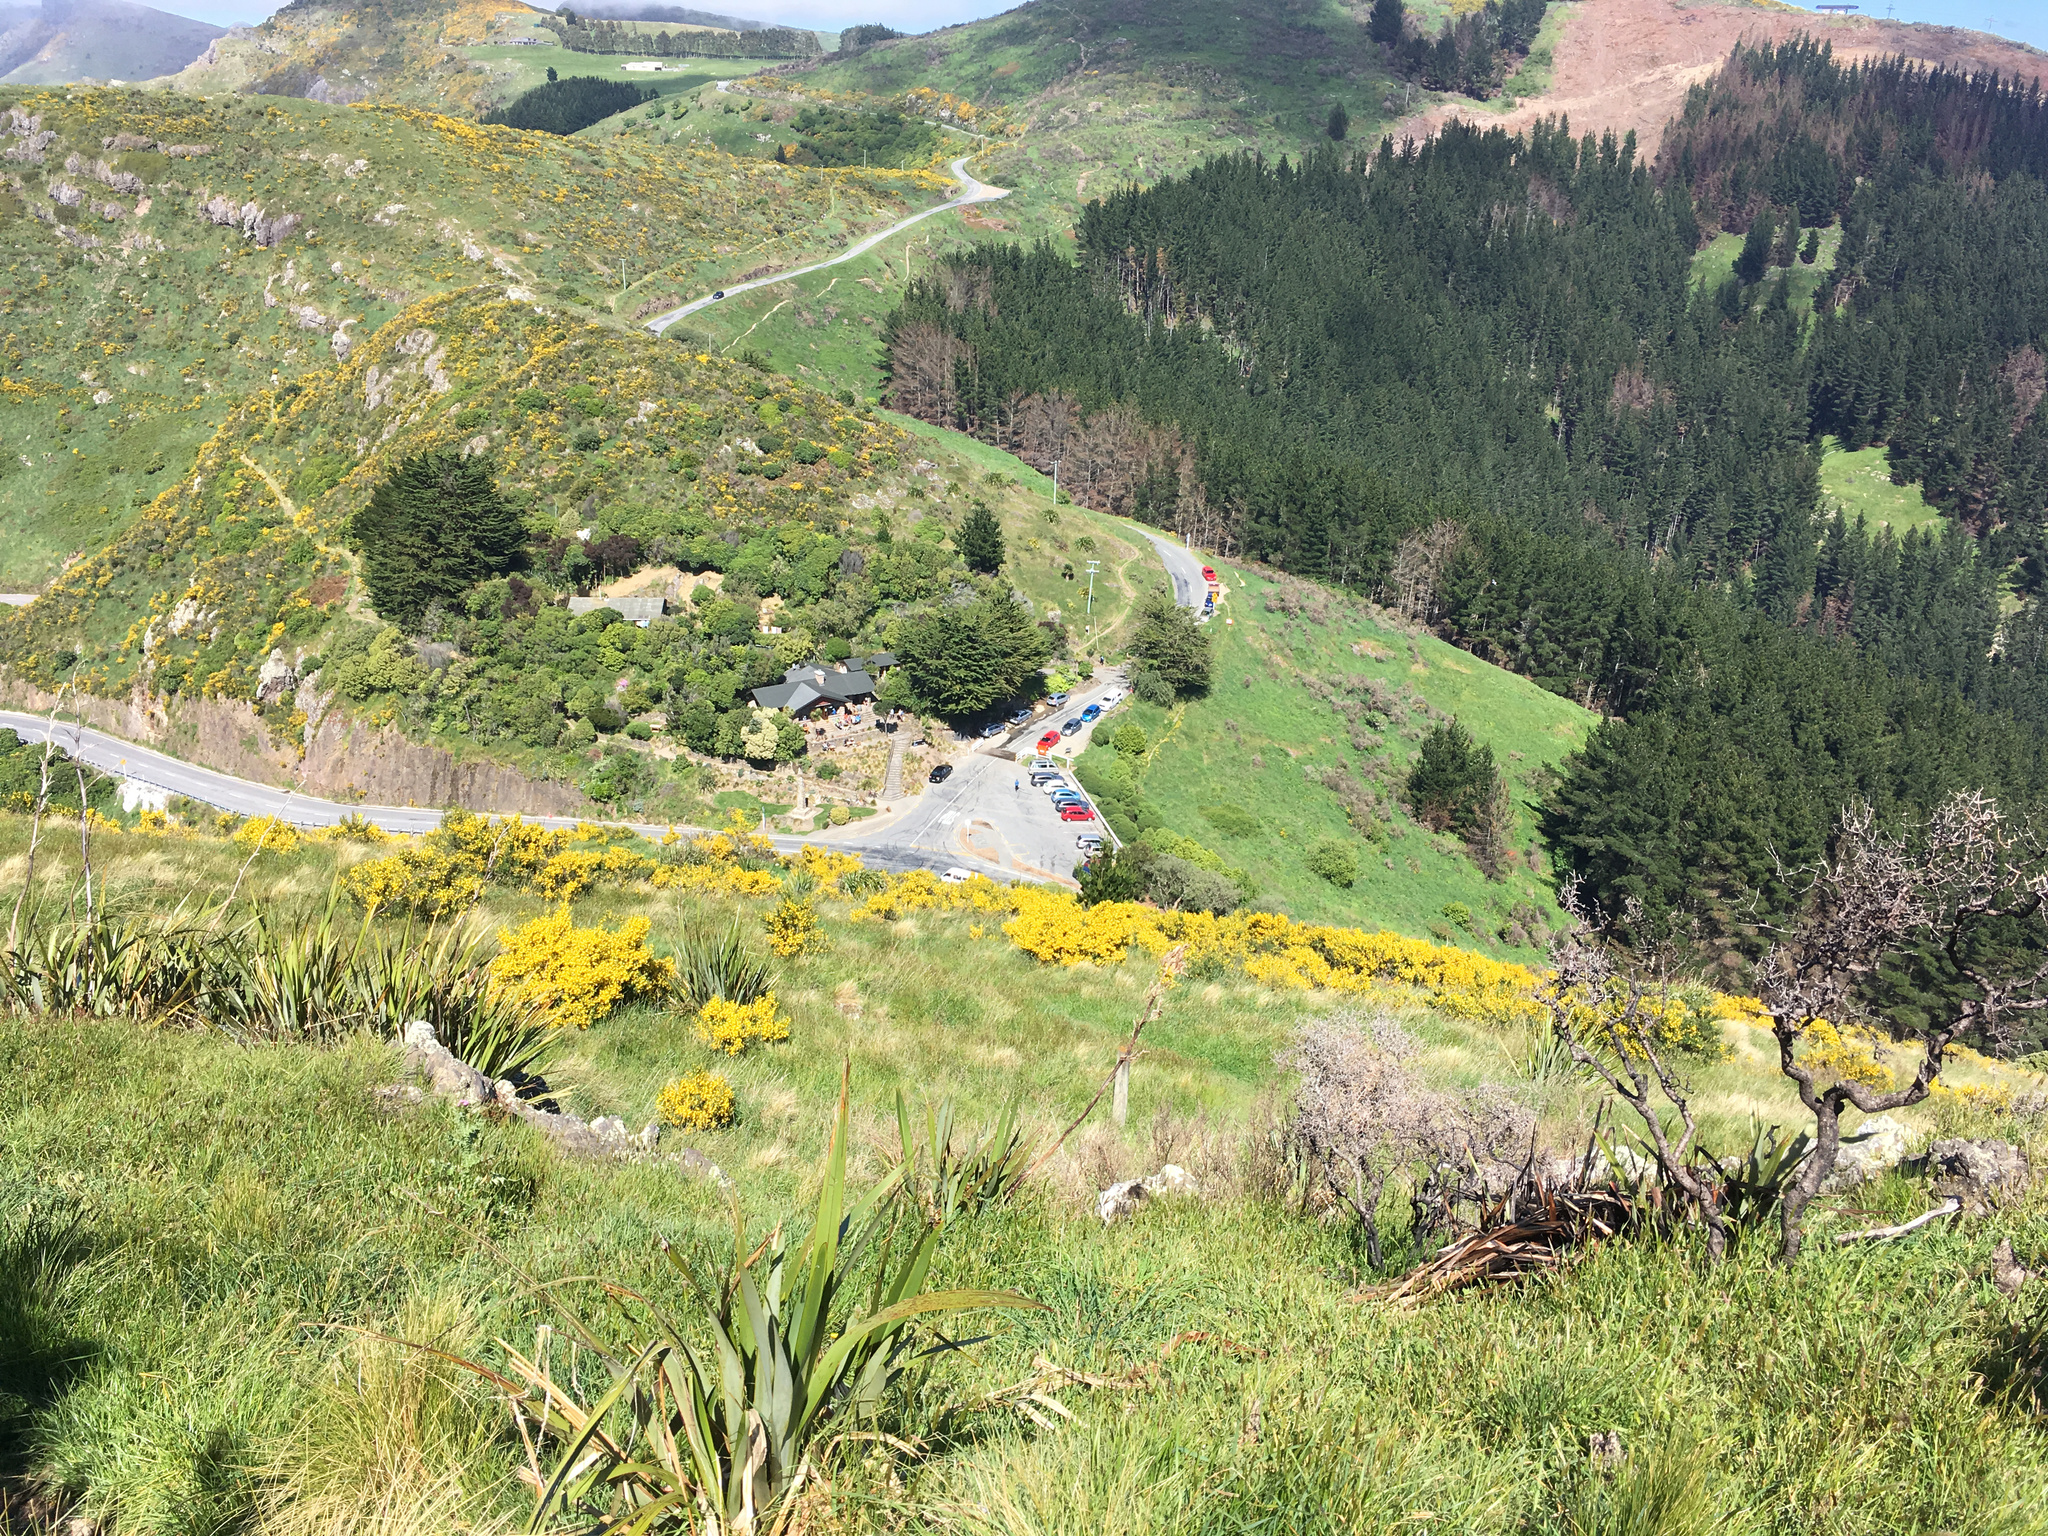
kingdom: Plantae
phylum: Tracheophyta
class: Liliopsida
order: Asparagales
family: Asphodelaceae
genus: Phormium
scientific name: Phormium tenax
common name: New zealand flax
